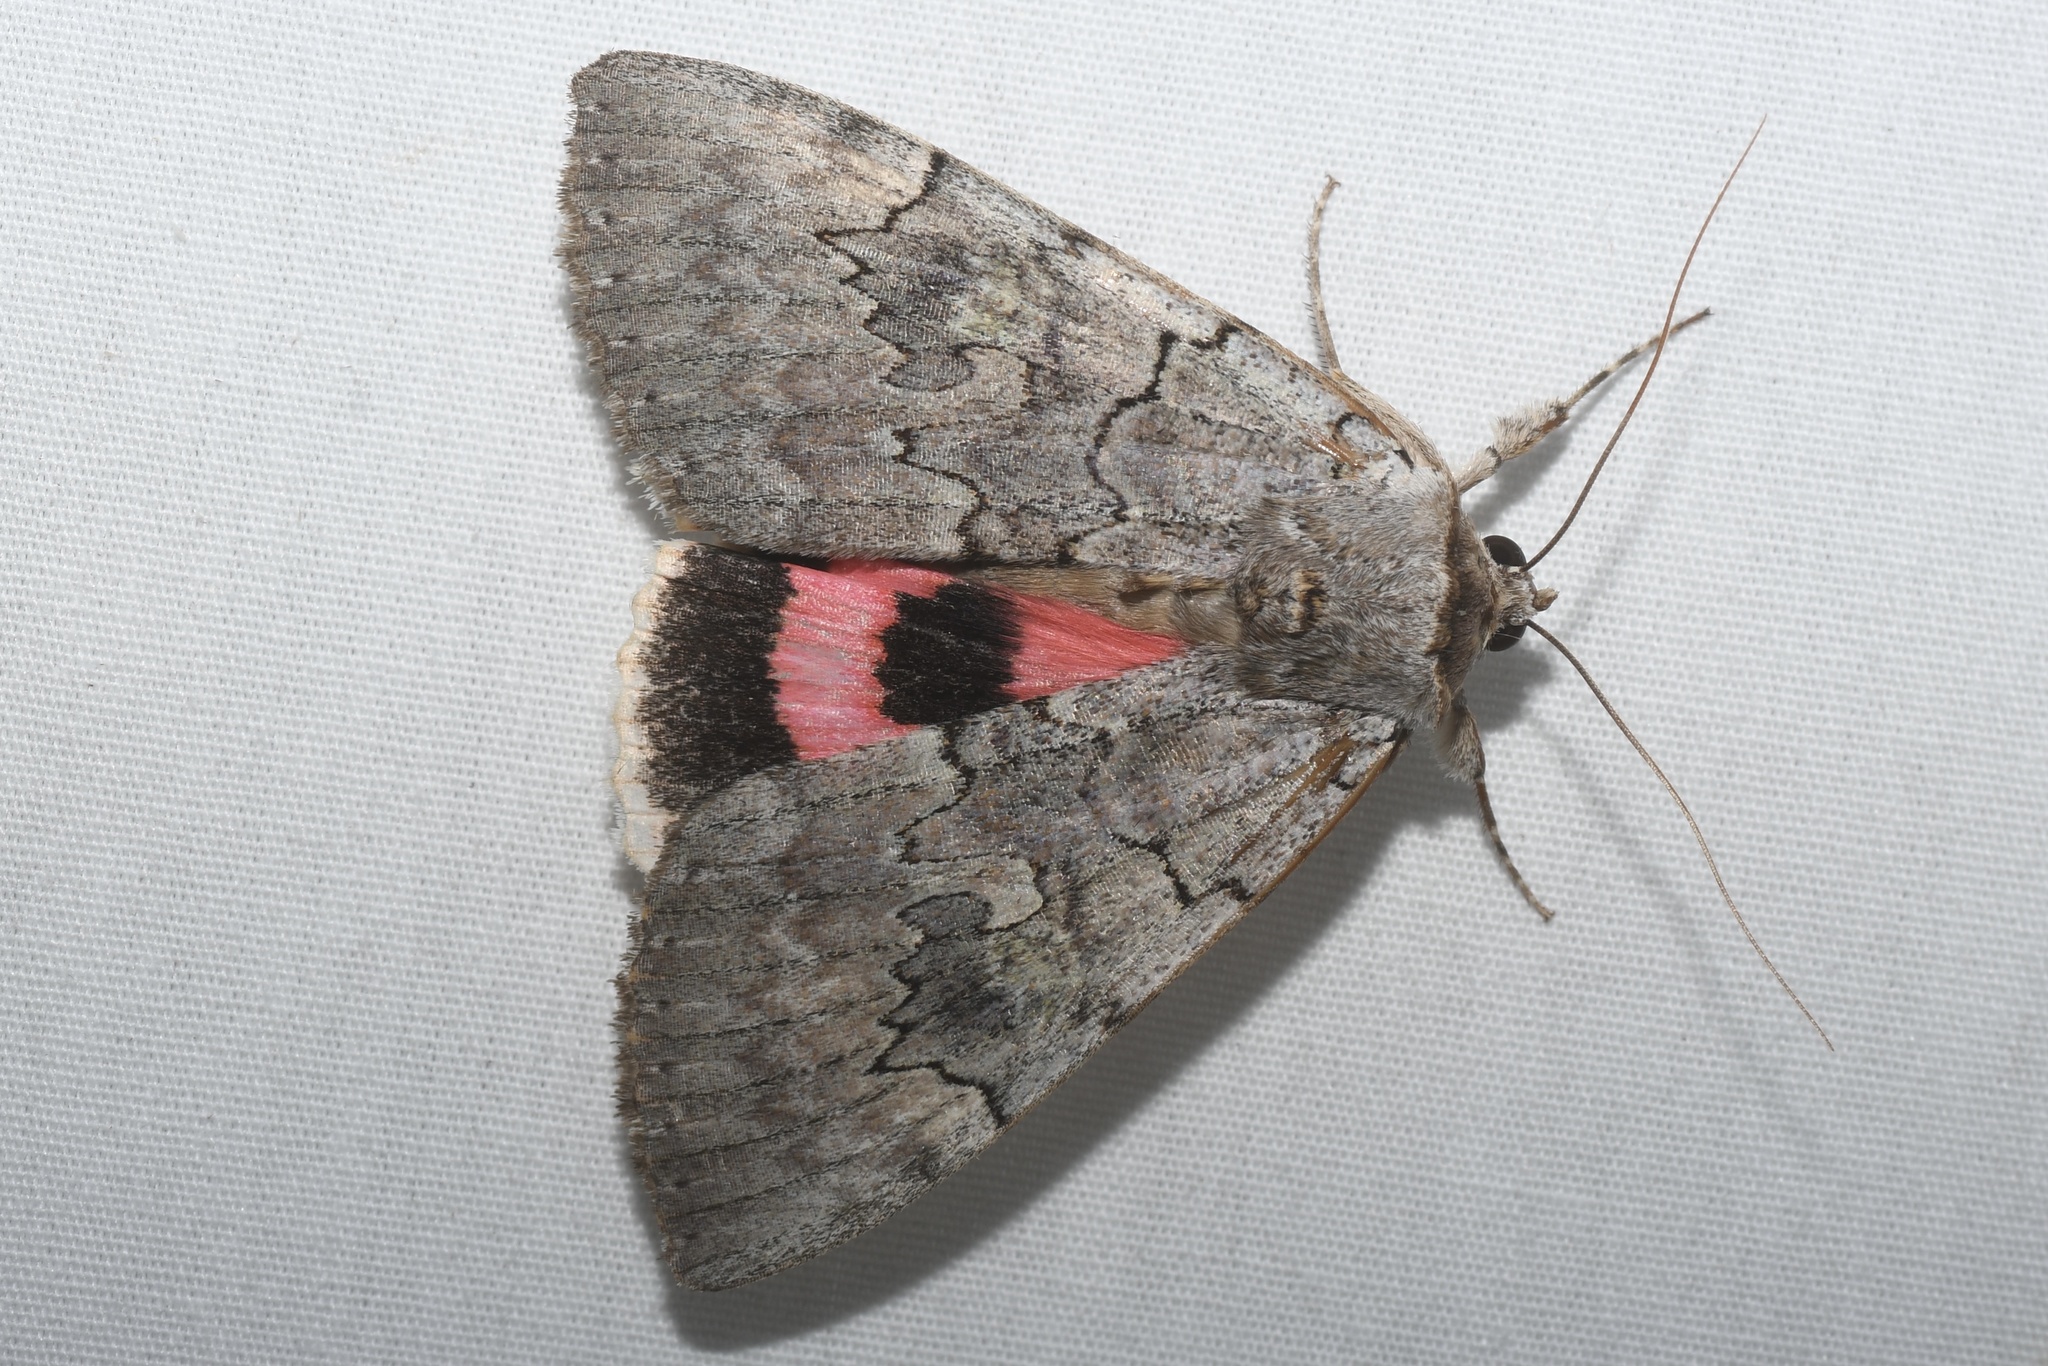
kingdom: Animalia
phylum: Arthropoda
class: Insecta
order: Lepidoptera
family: Erebidae
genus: Catocala
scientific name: Catocala concumbens
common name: Pink underwing
